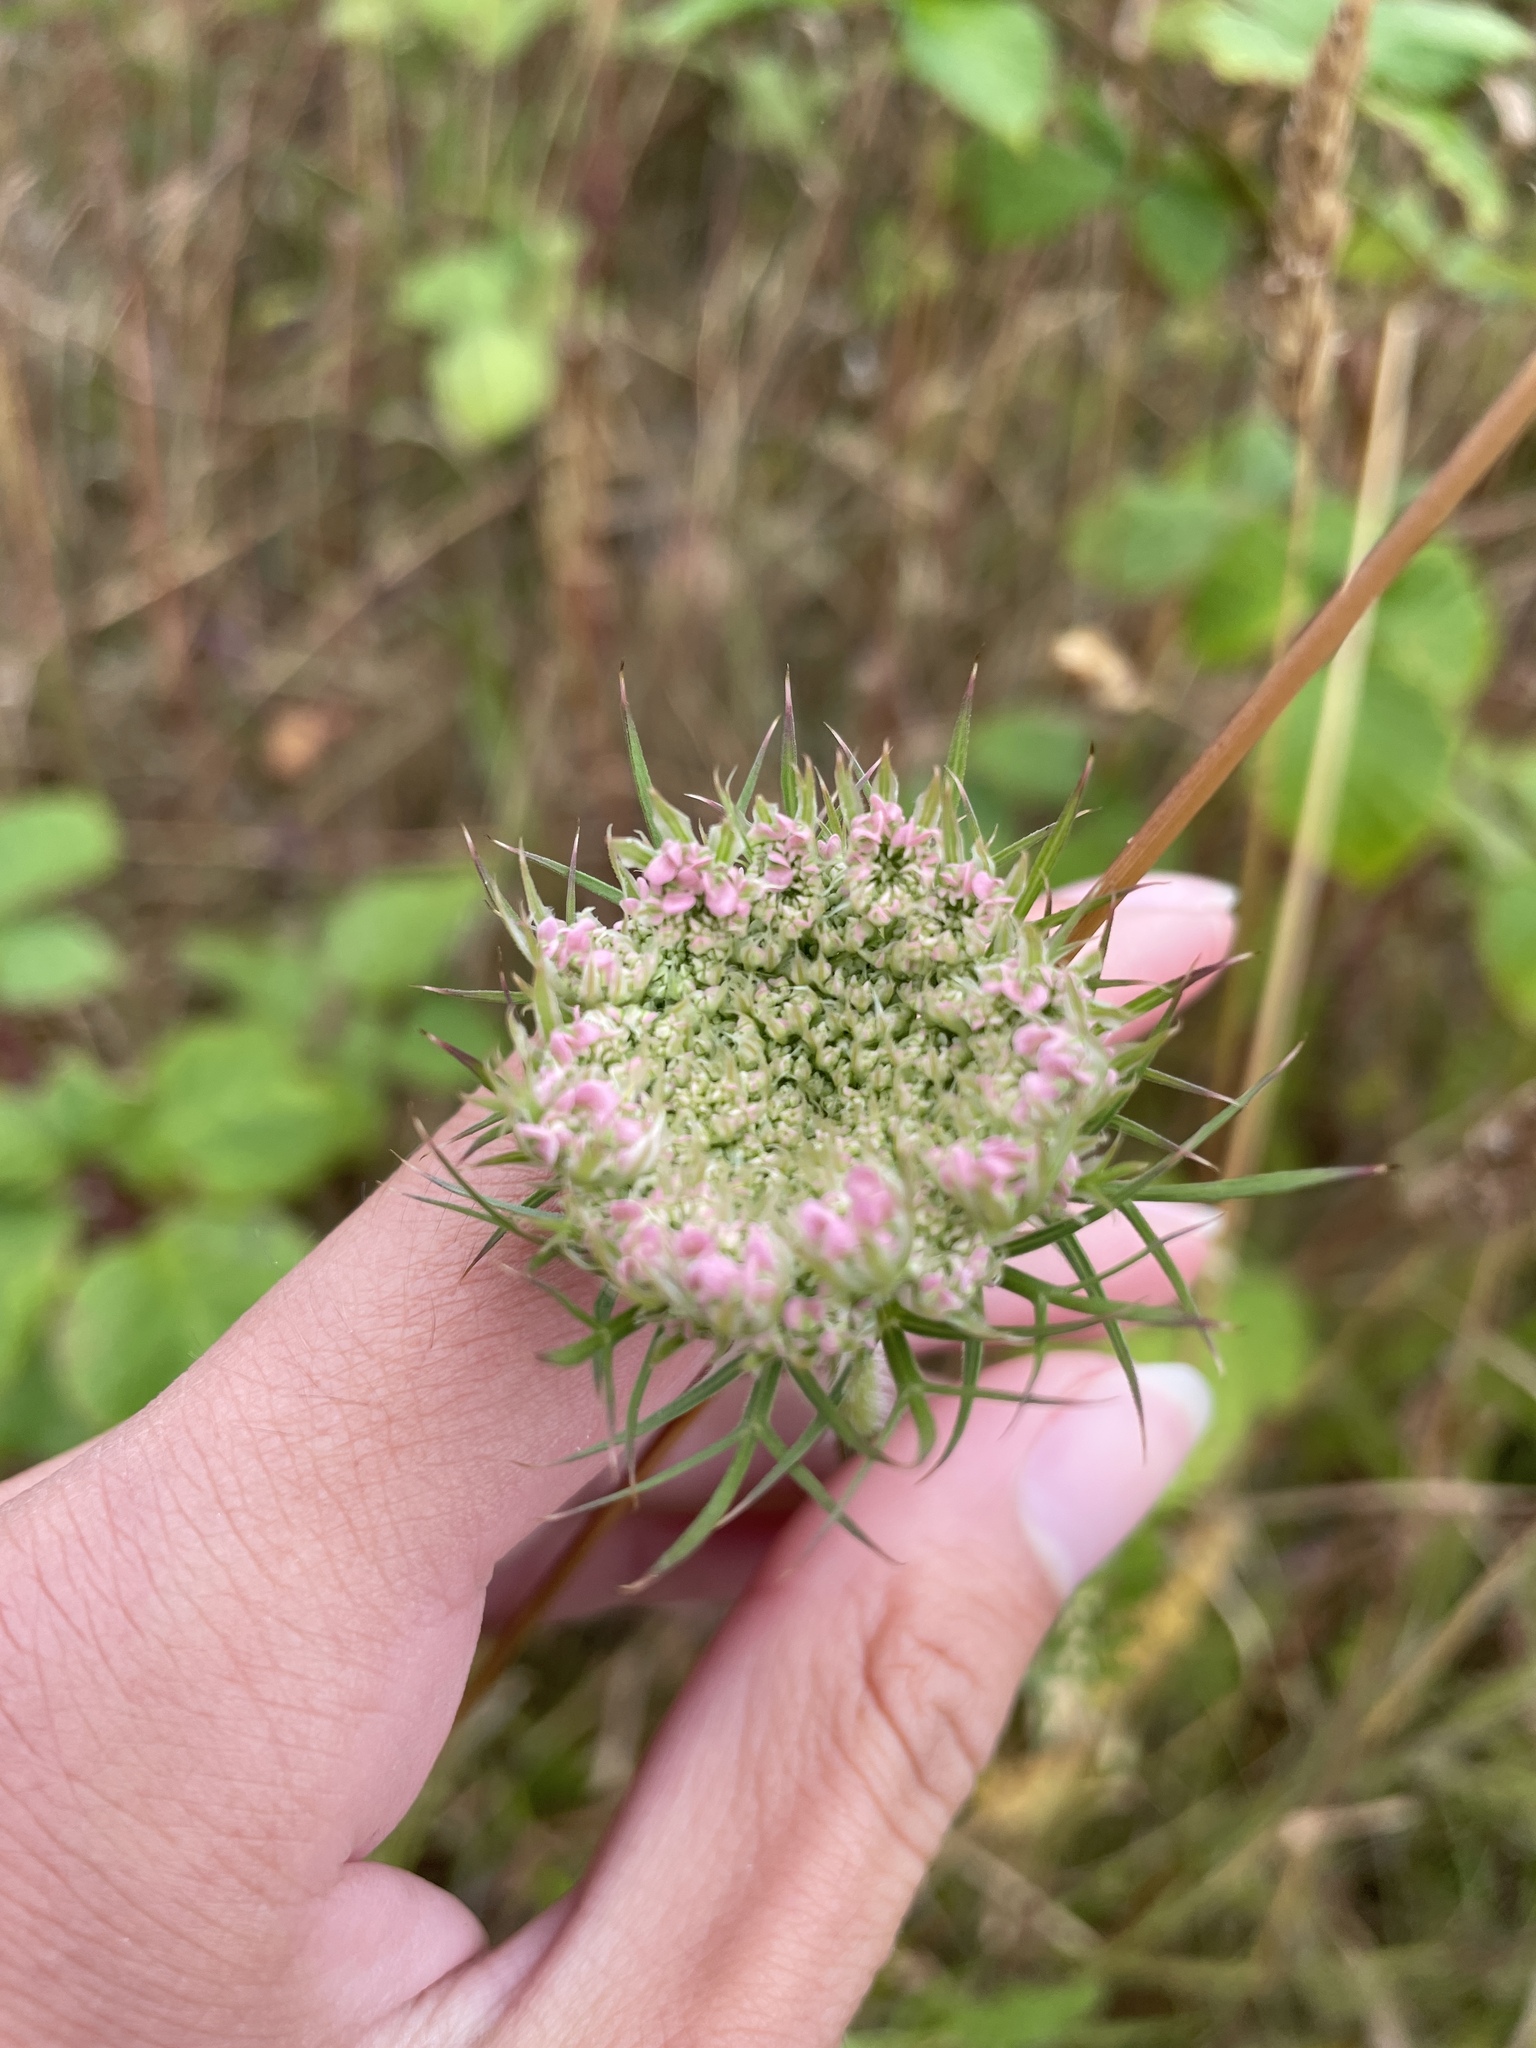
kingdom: Plantae
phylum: Tracheophyta
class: Magnoliopsida
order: Apiales
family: Apiaceae
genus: Daucus
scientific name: Daucus carota
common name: Wild carrot
